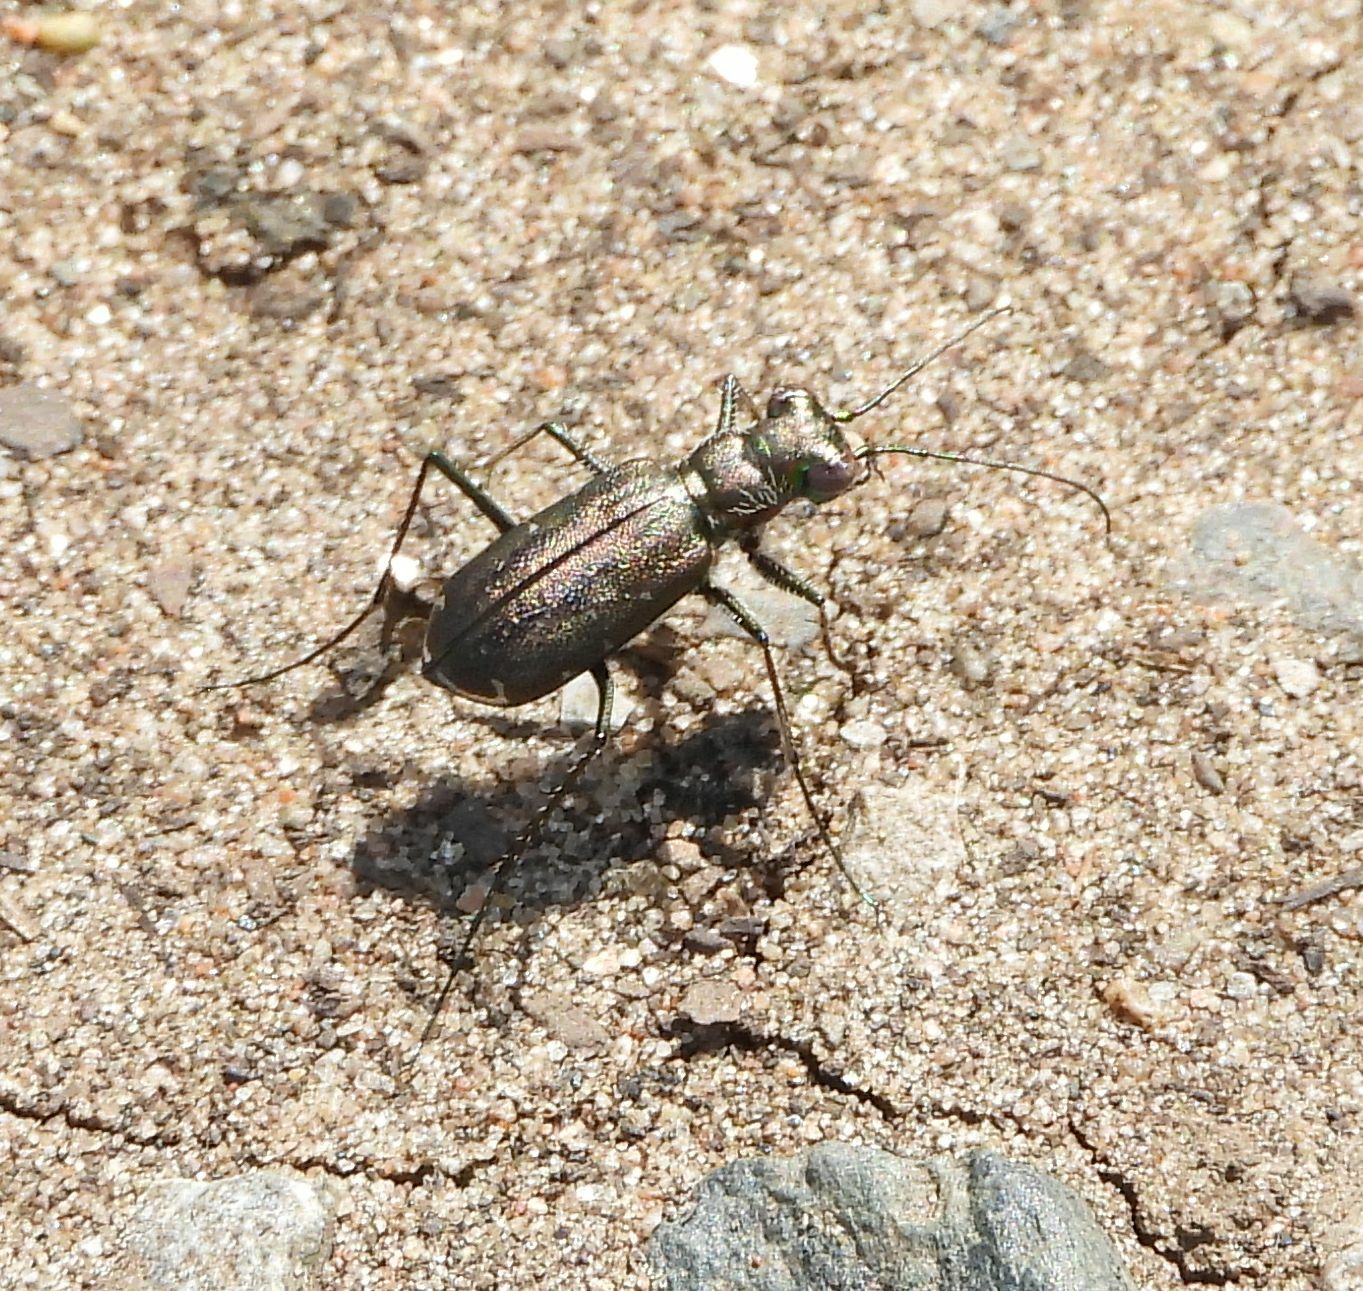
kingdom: Animalia
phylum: Arthropoda
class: Insecta
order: Coleoptera
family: Carabidae
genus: Cicindela
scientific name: Cicindela punctulata
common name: Punctured tiger beetle
